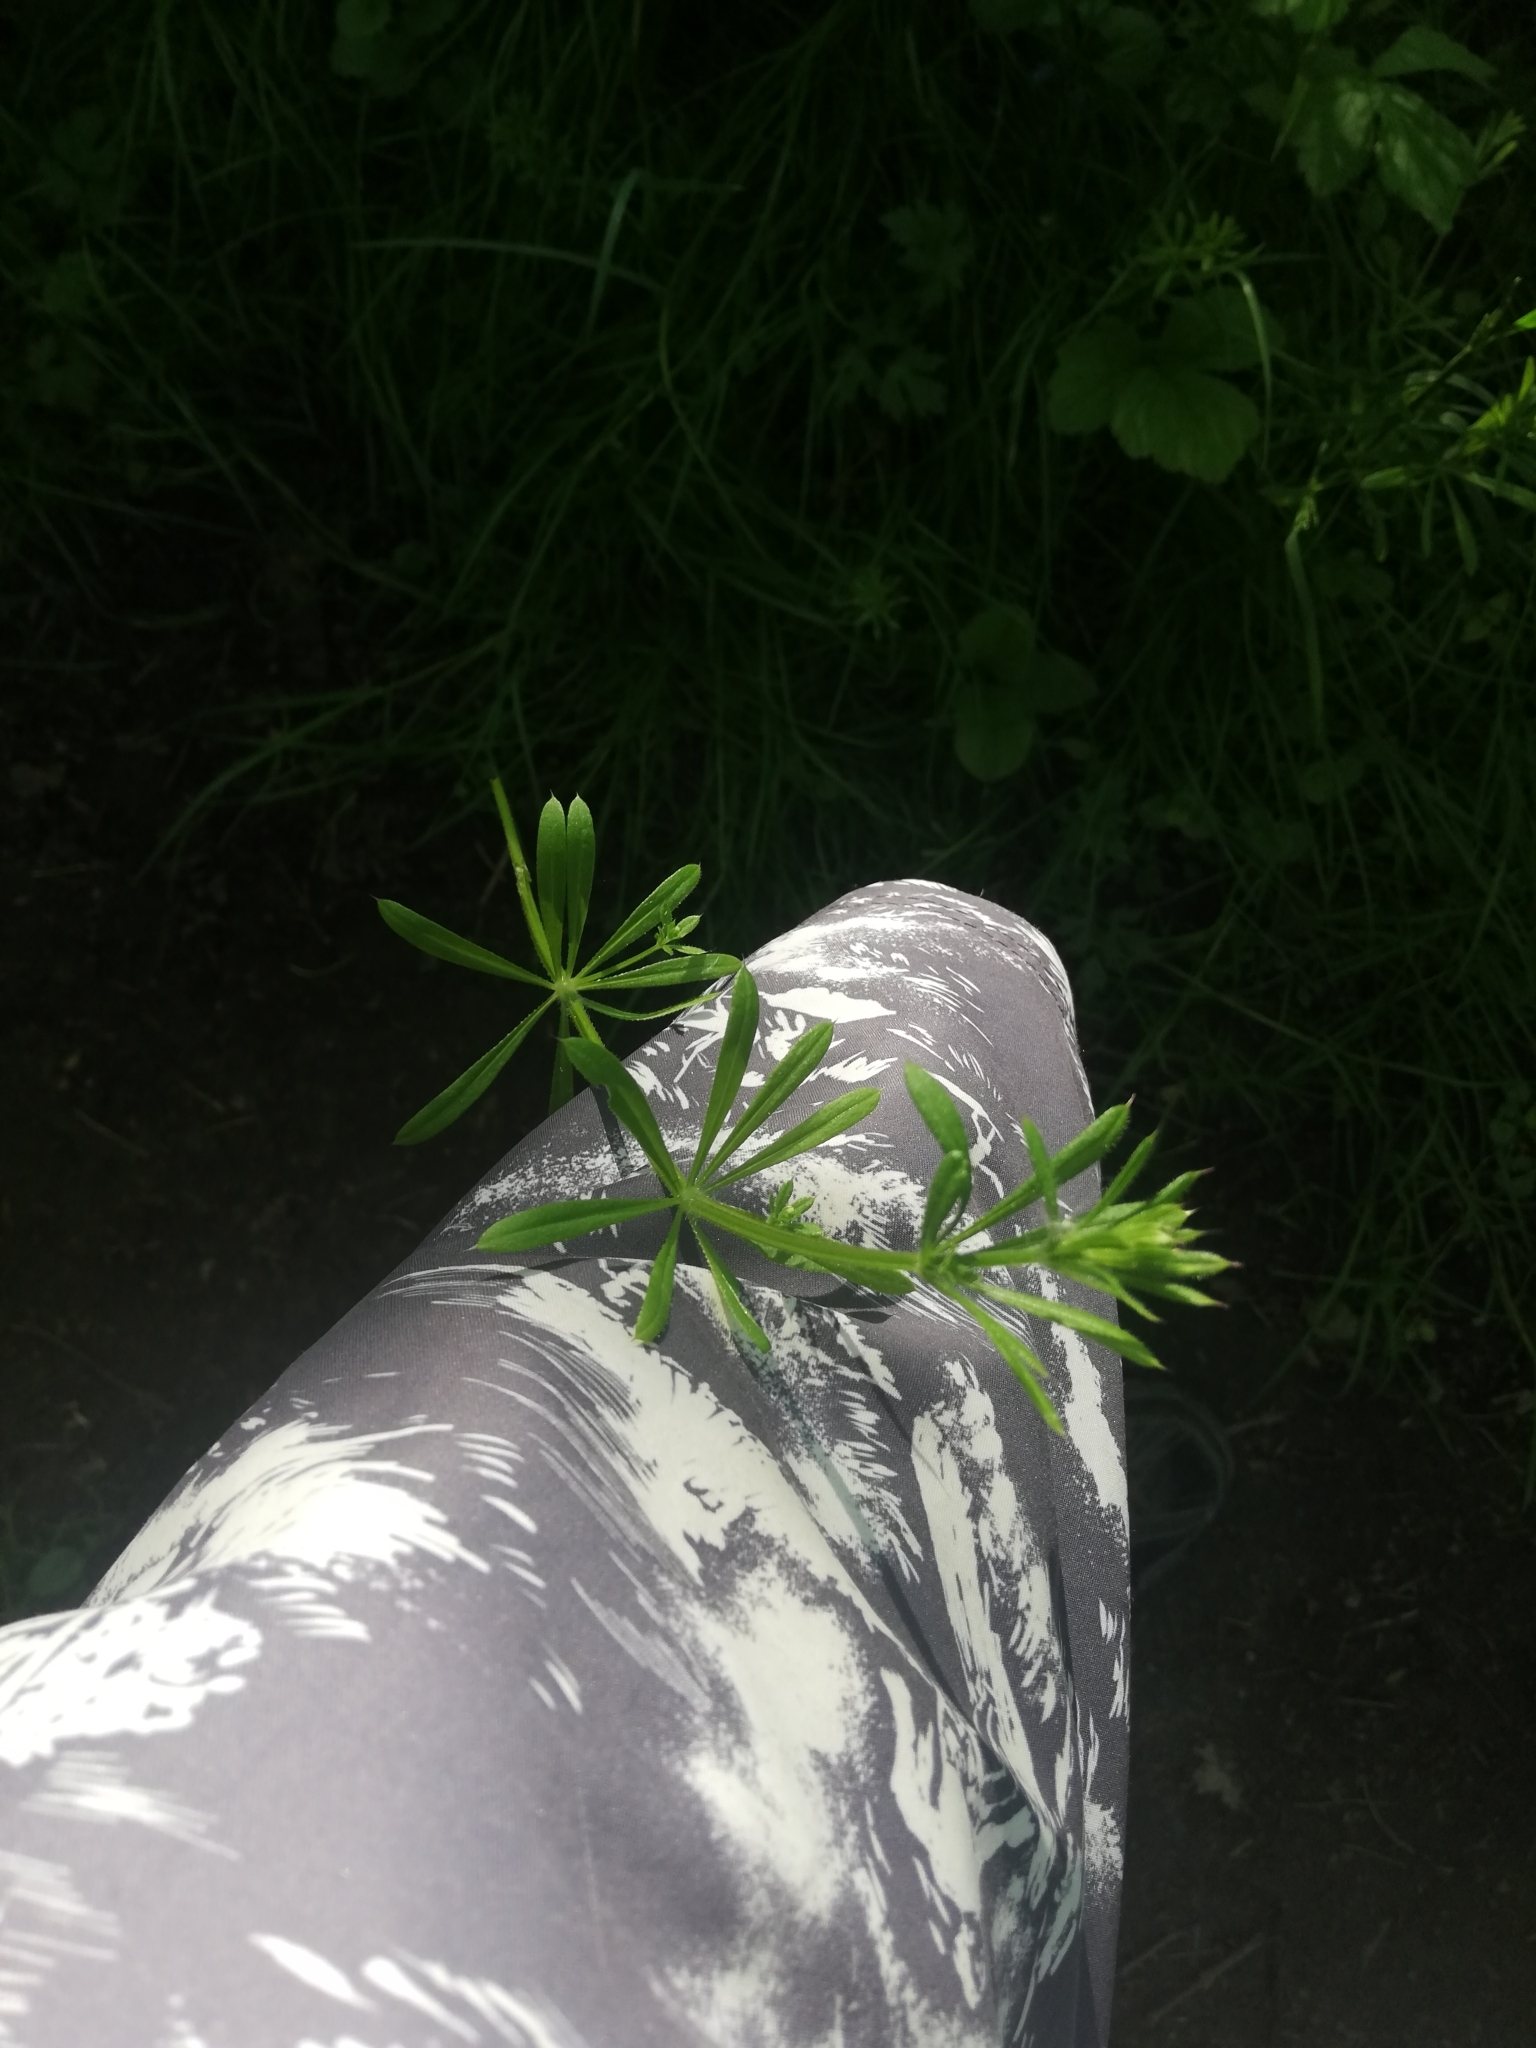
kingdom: Plantae
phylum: Tracheophyta
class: Magnoliopsida
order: Gentianales
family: Rubiaceae
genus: Galium
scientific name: Galium aparine
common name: Cleavers
